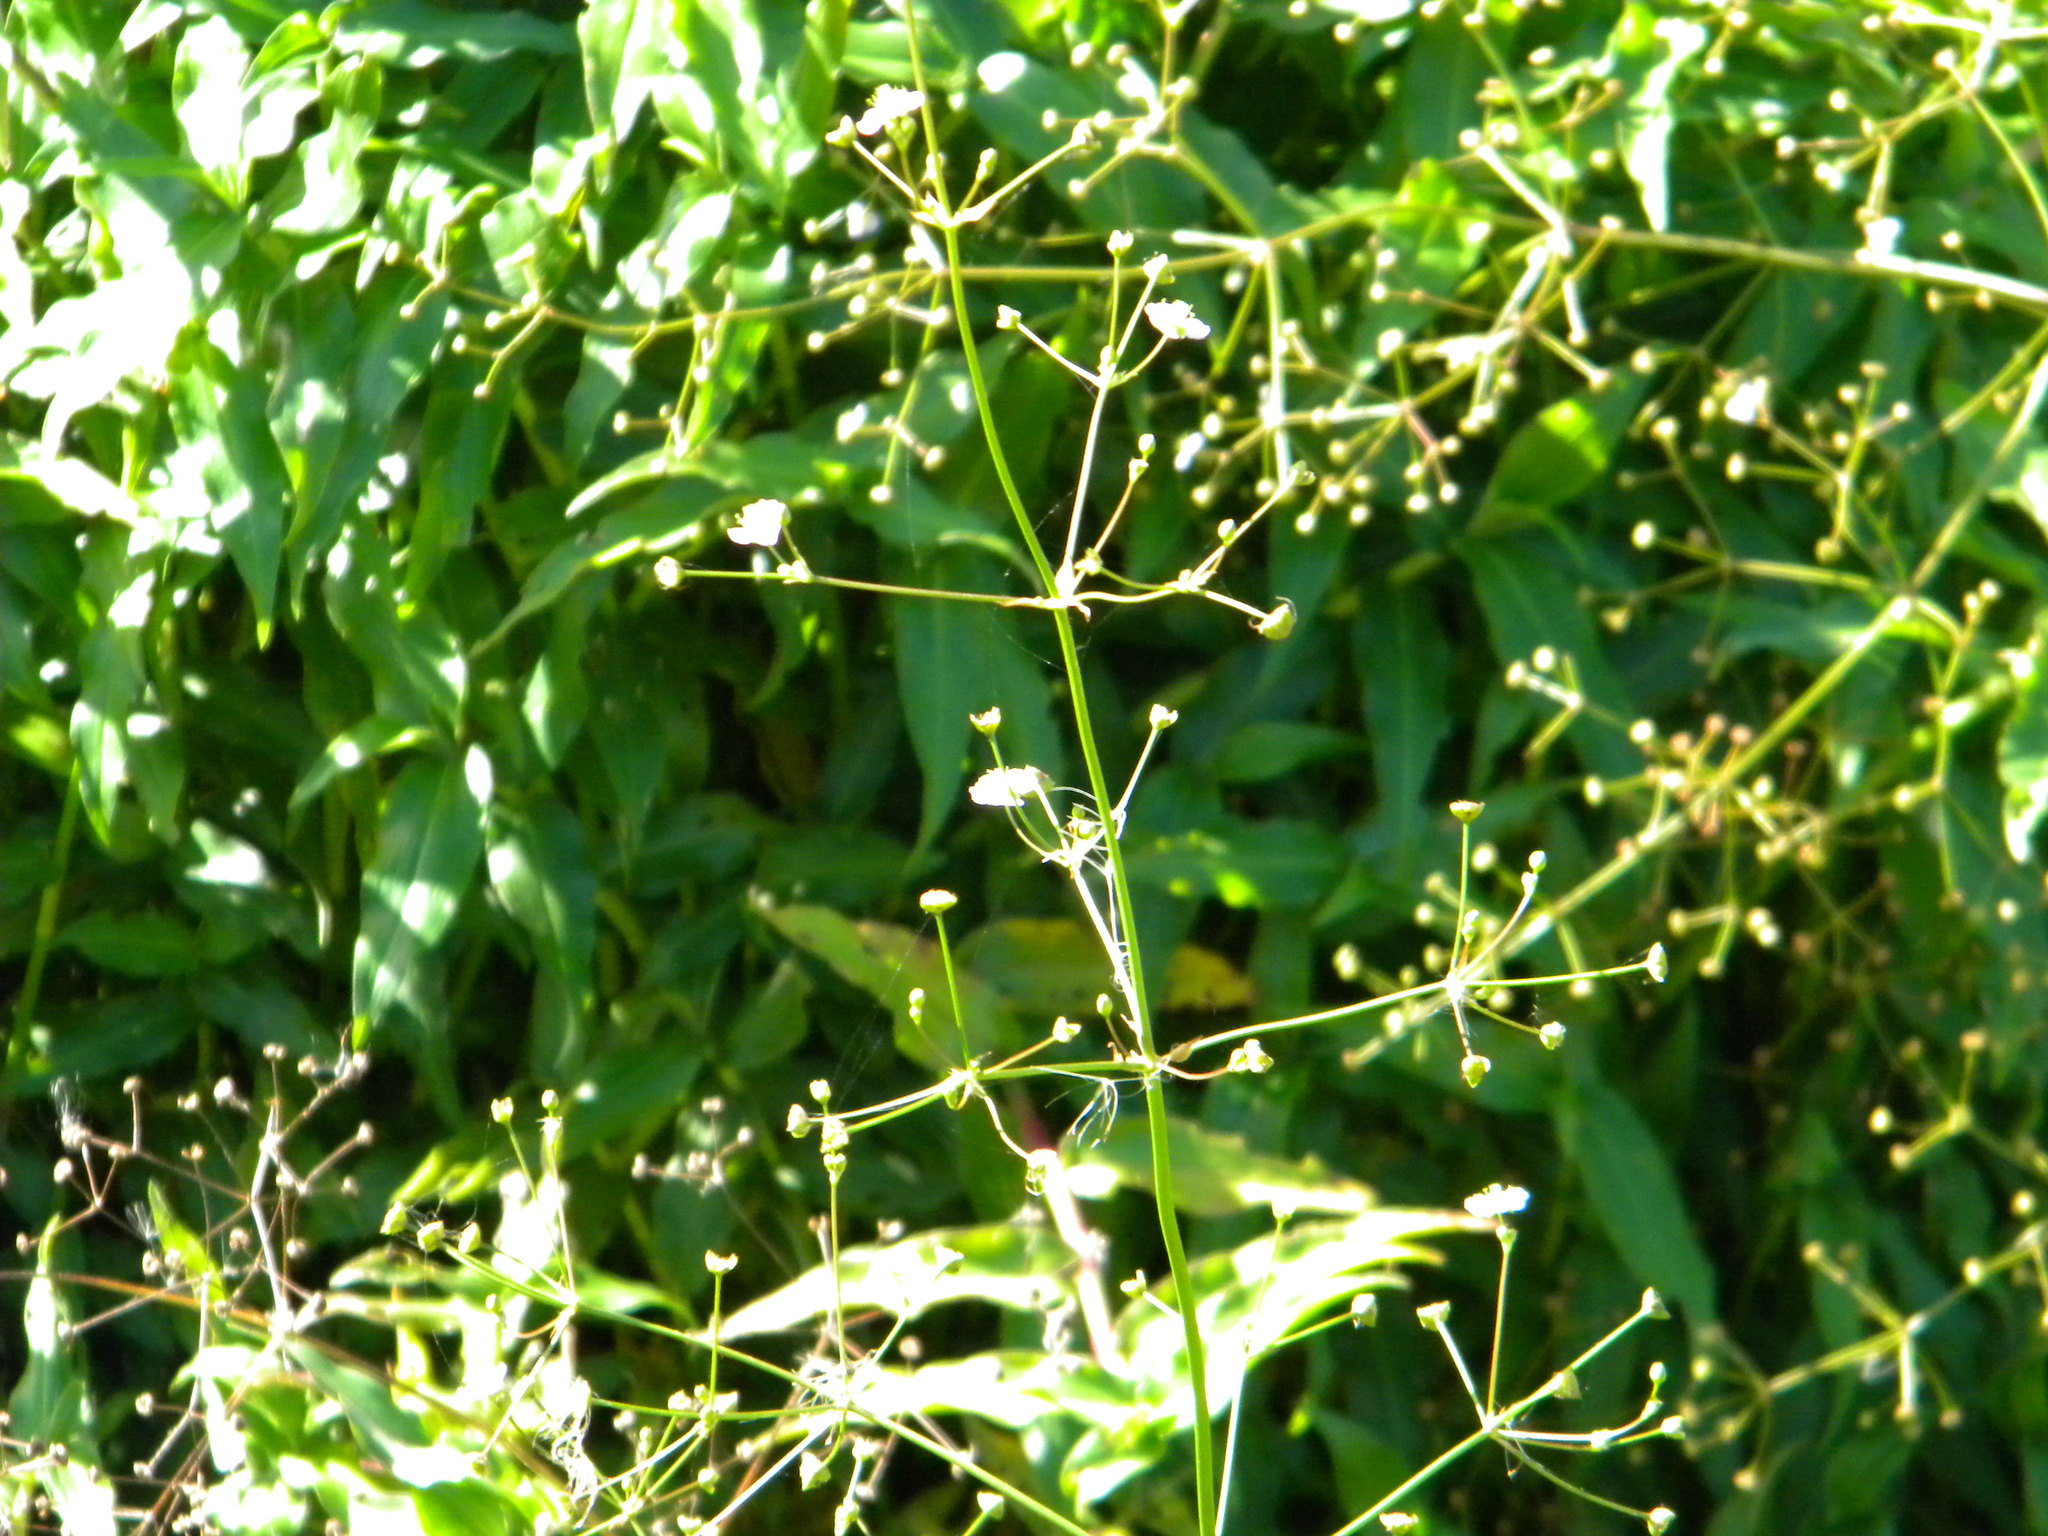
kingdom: Plantae
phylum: Tracheophyta
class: Liliopsida
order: Alismatales
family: Alismataceae
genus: Alisma
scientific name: Alisma plantago-aquatica
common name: Water-plantain
